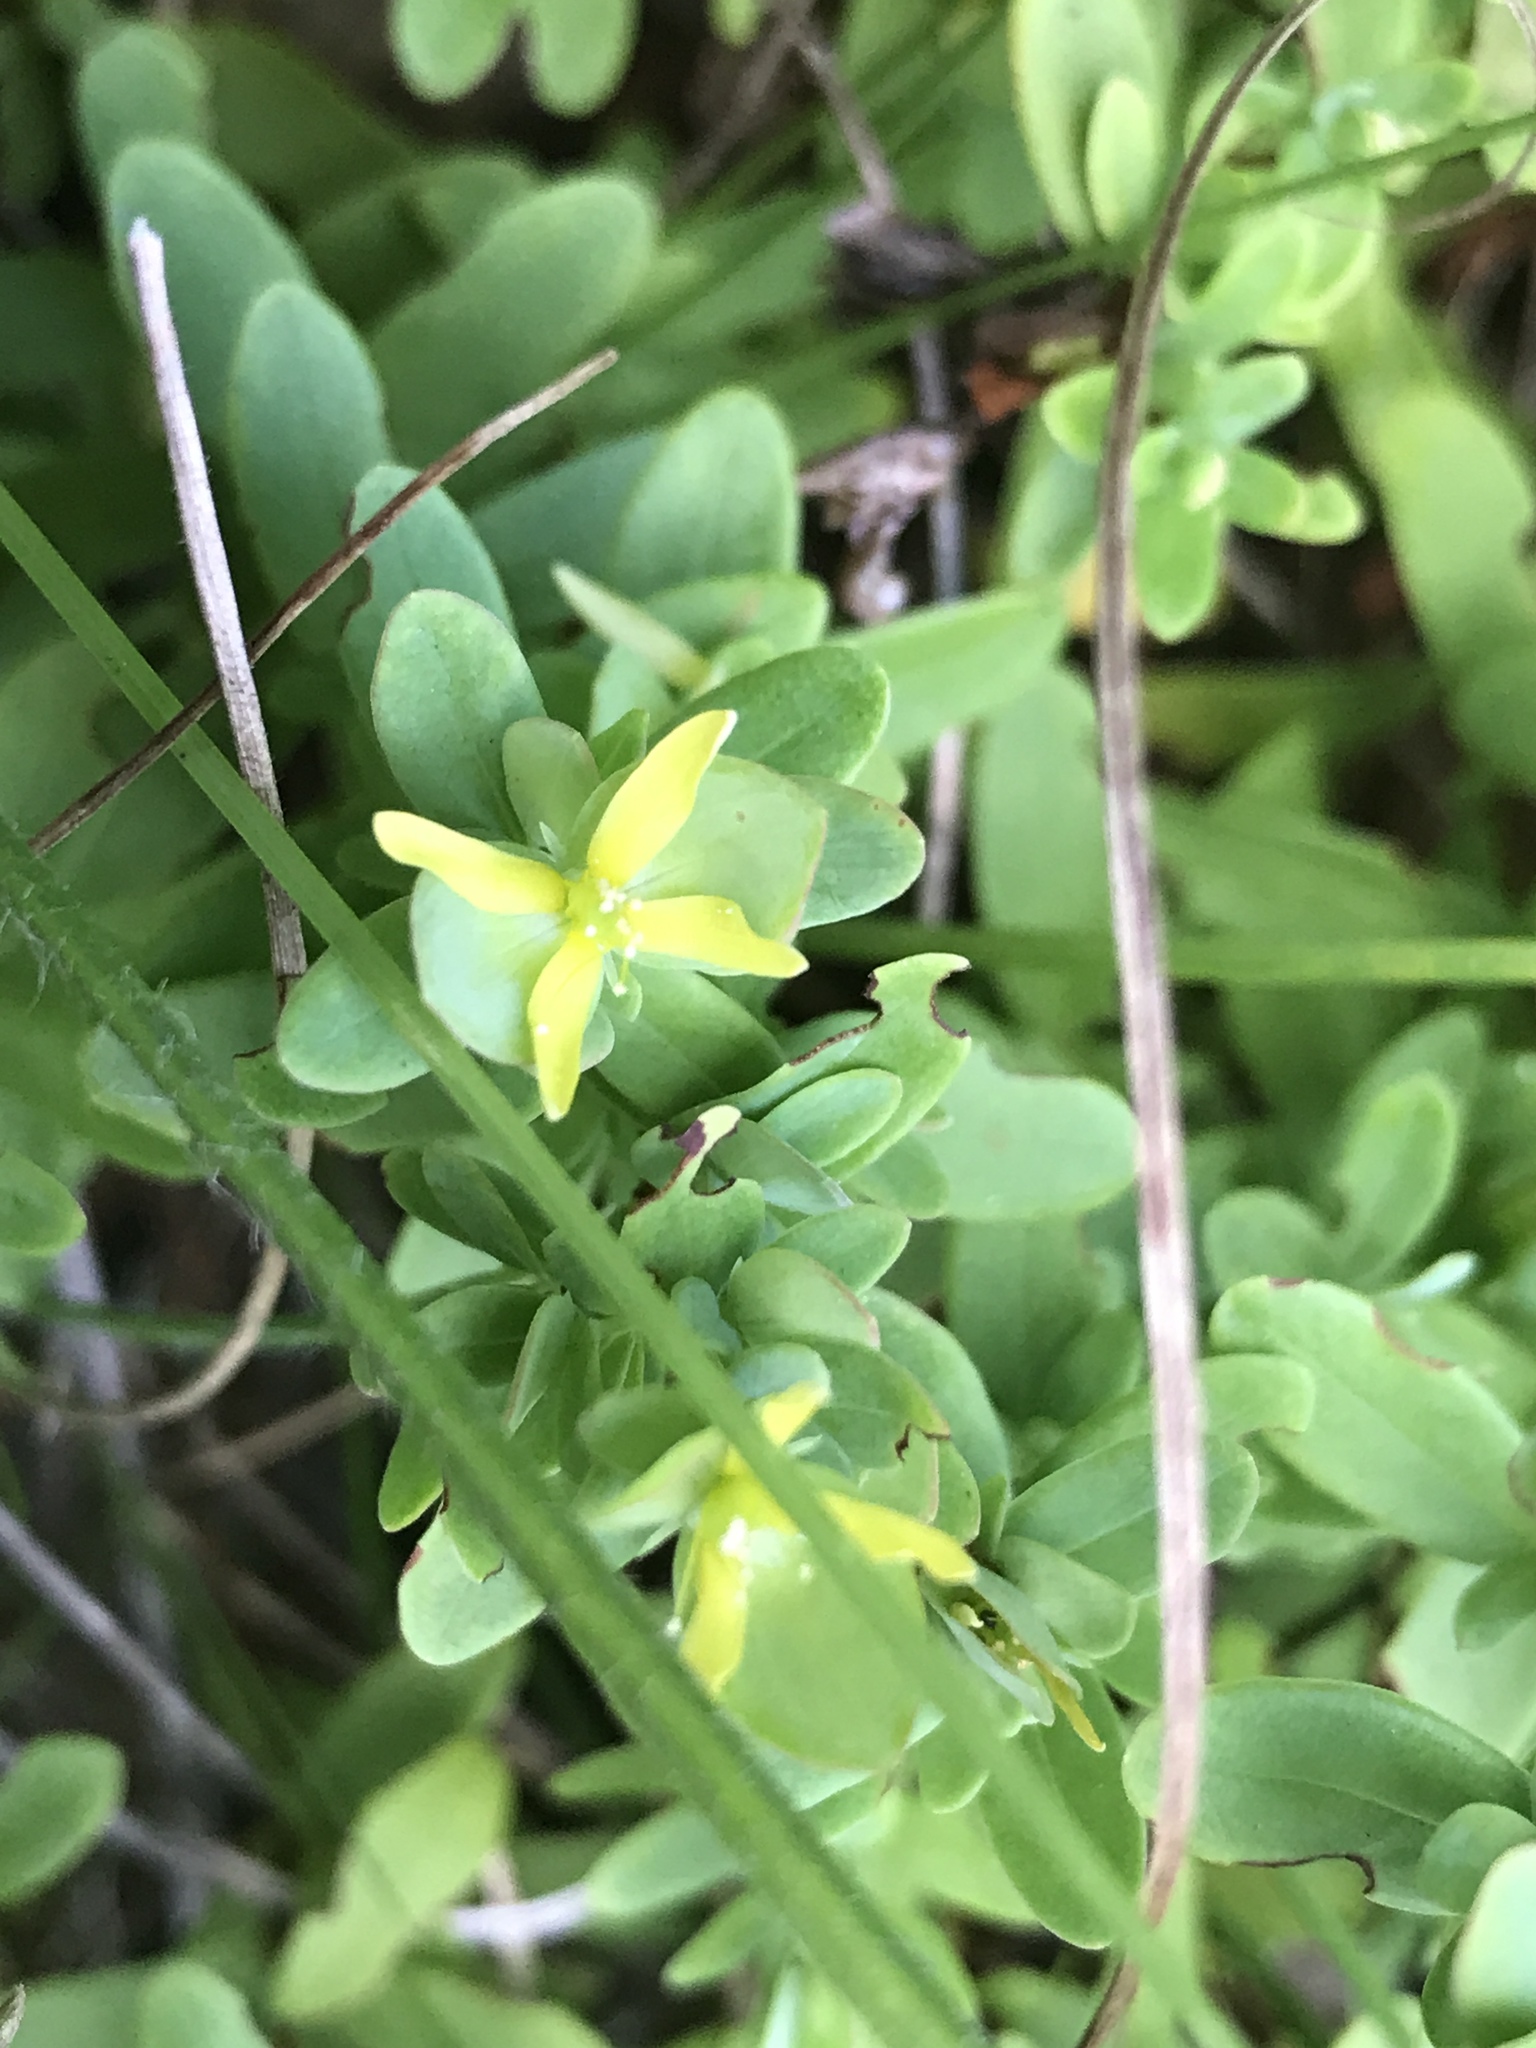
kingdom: Plantae
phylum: Tracheophyta
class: Magnoliopsida
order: Malpighiales
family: Hypericaceae
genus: Hypericum
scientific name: Hypericum hypericoides
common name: St. andrew's cross
